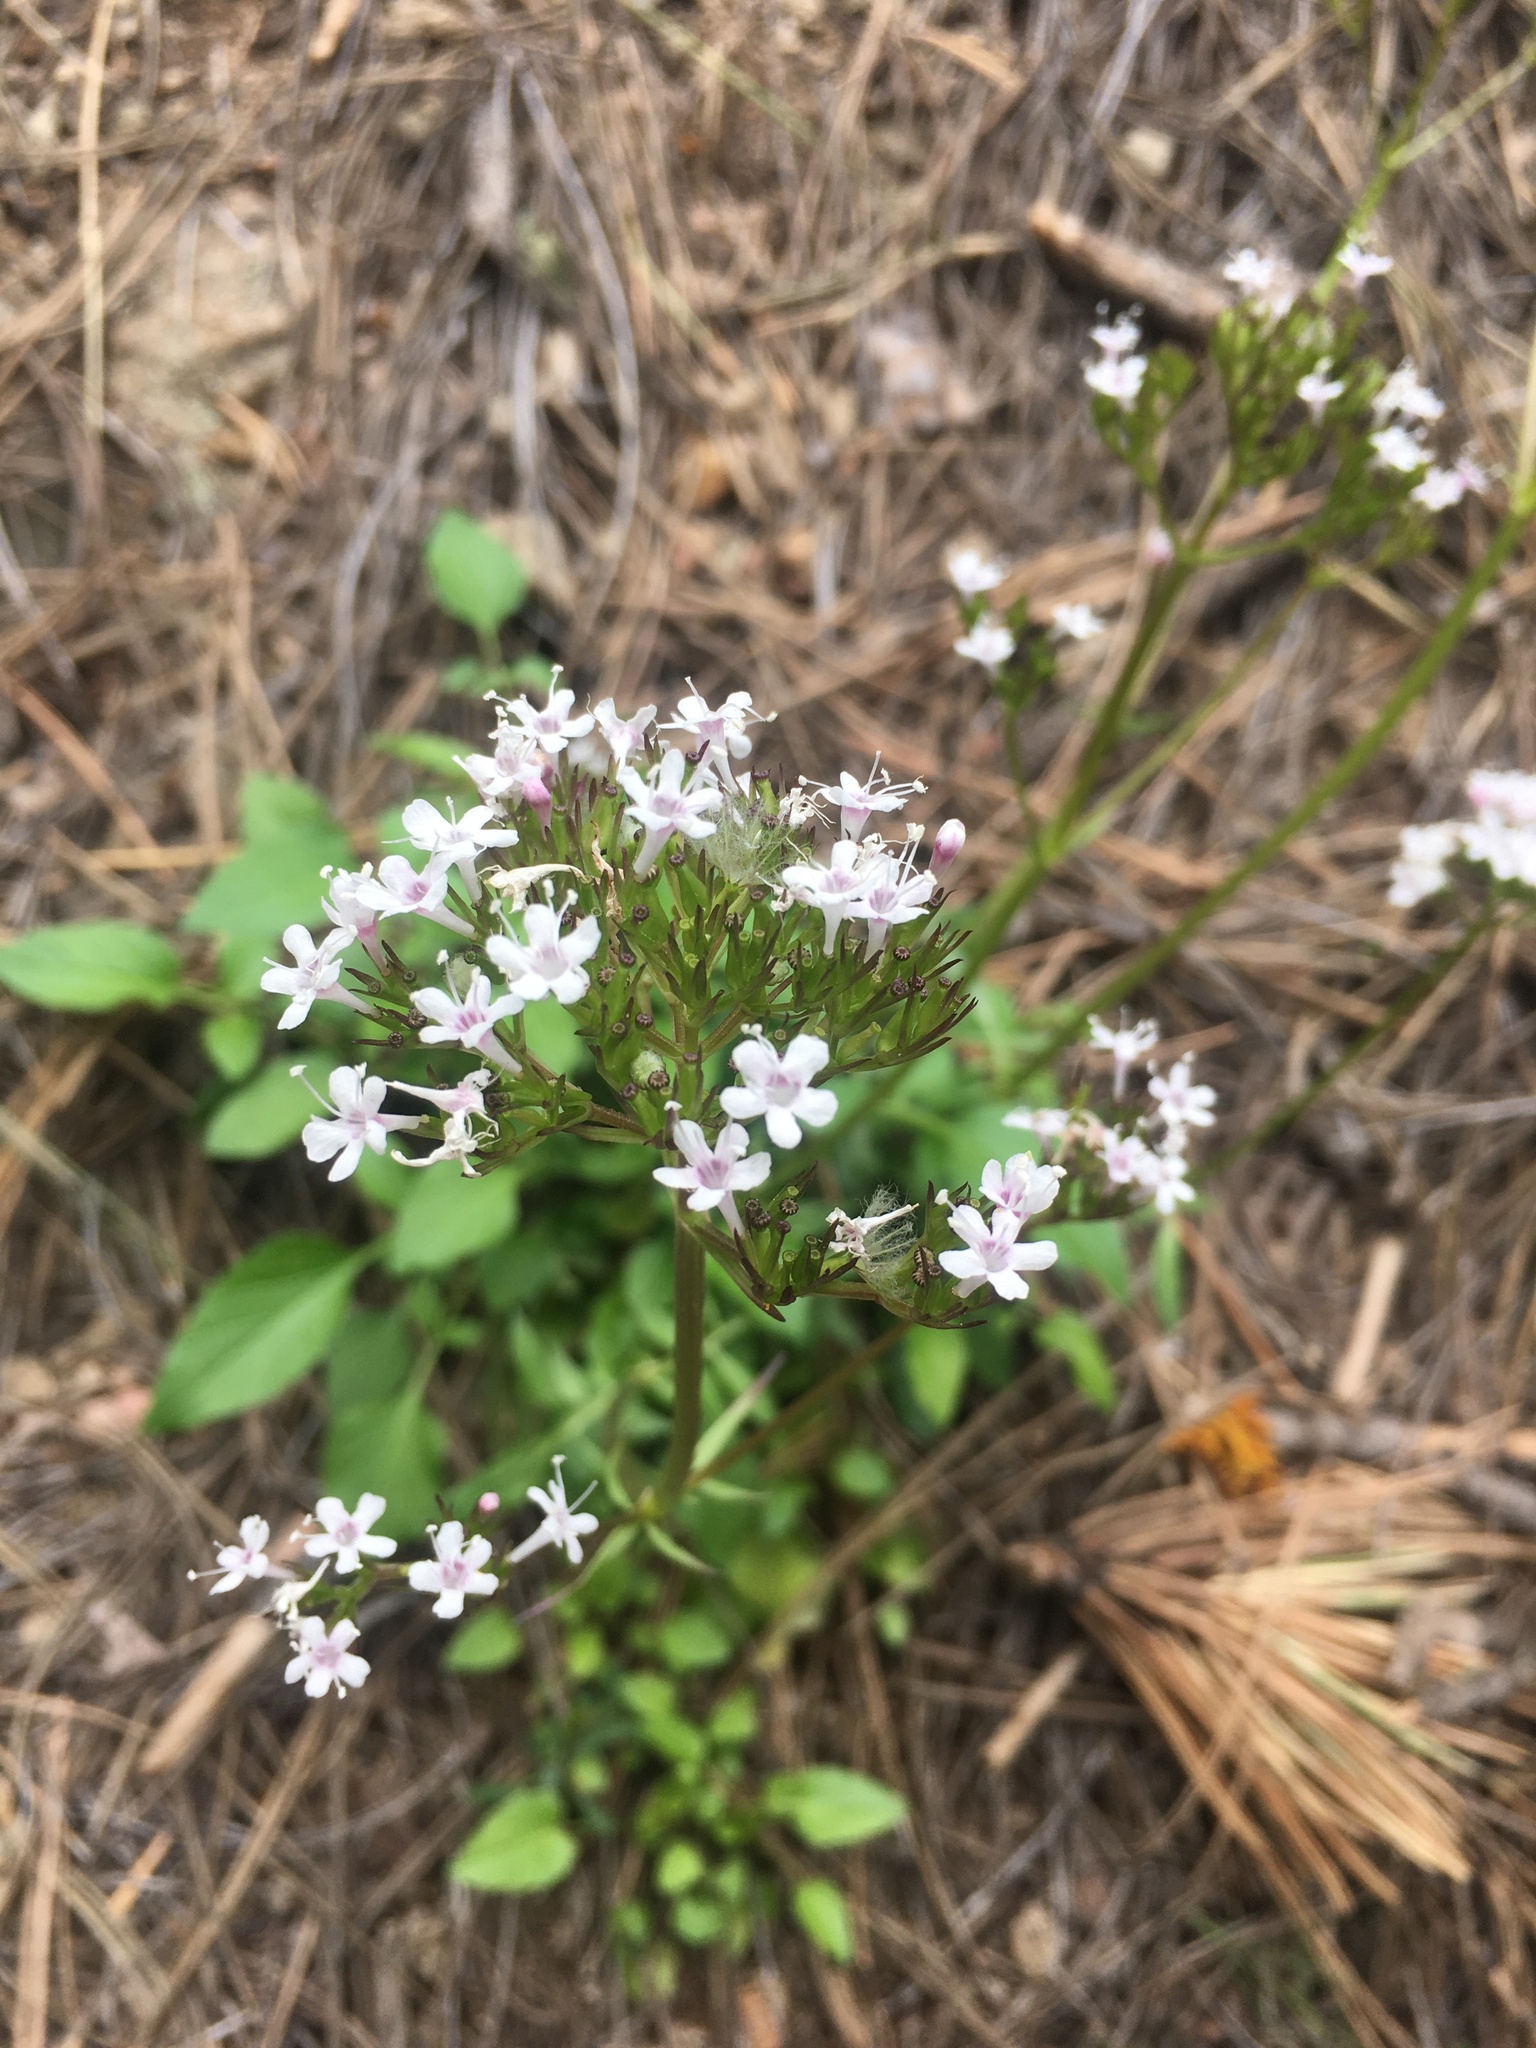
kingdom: Plantae
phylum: Tracheophyta
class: Magnoliopsida
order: Dipsacales
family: Caprifoliaceae
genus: Valeriana
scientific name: Valeriana arizonica
